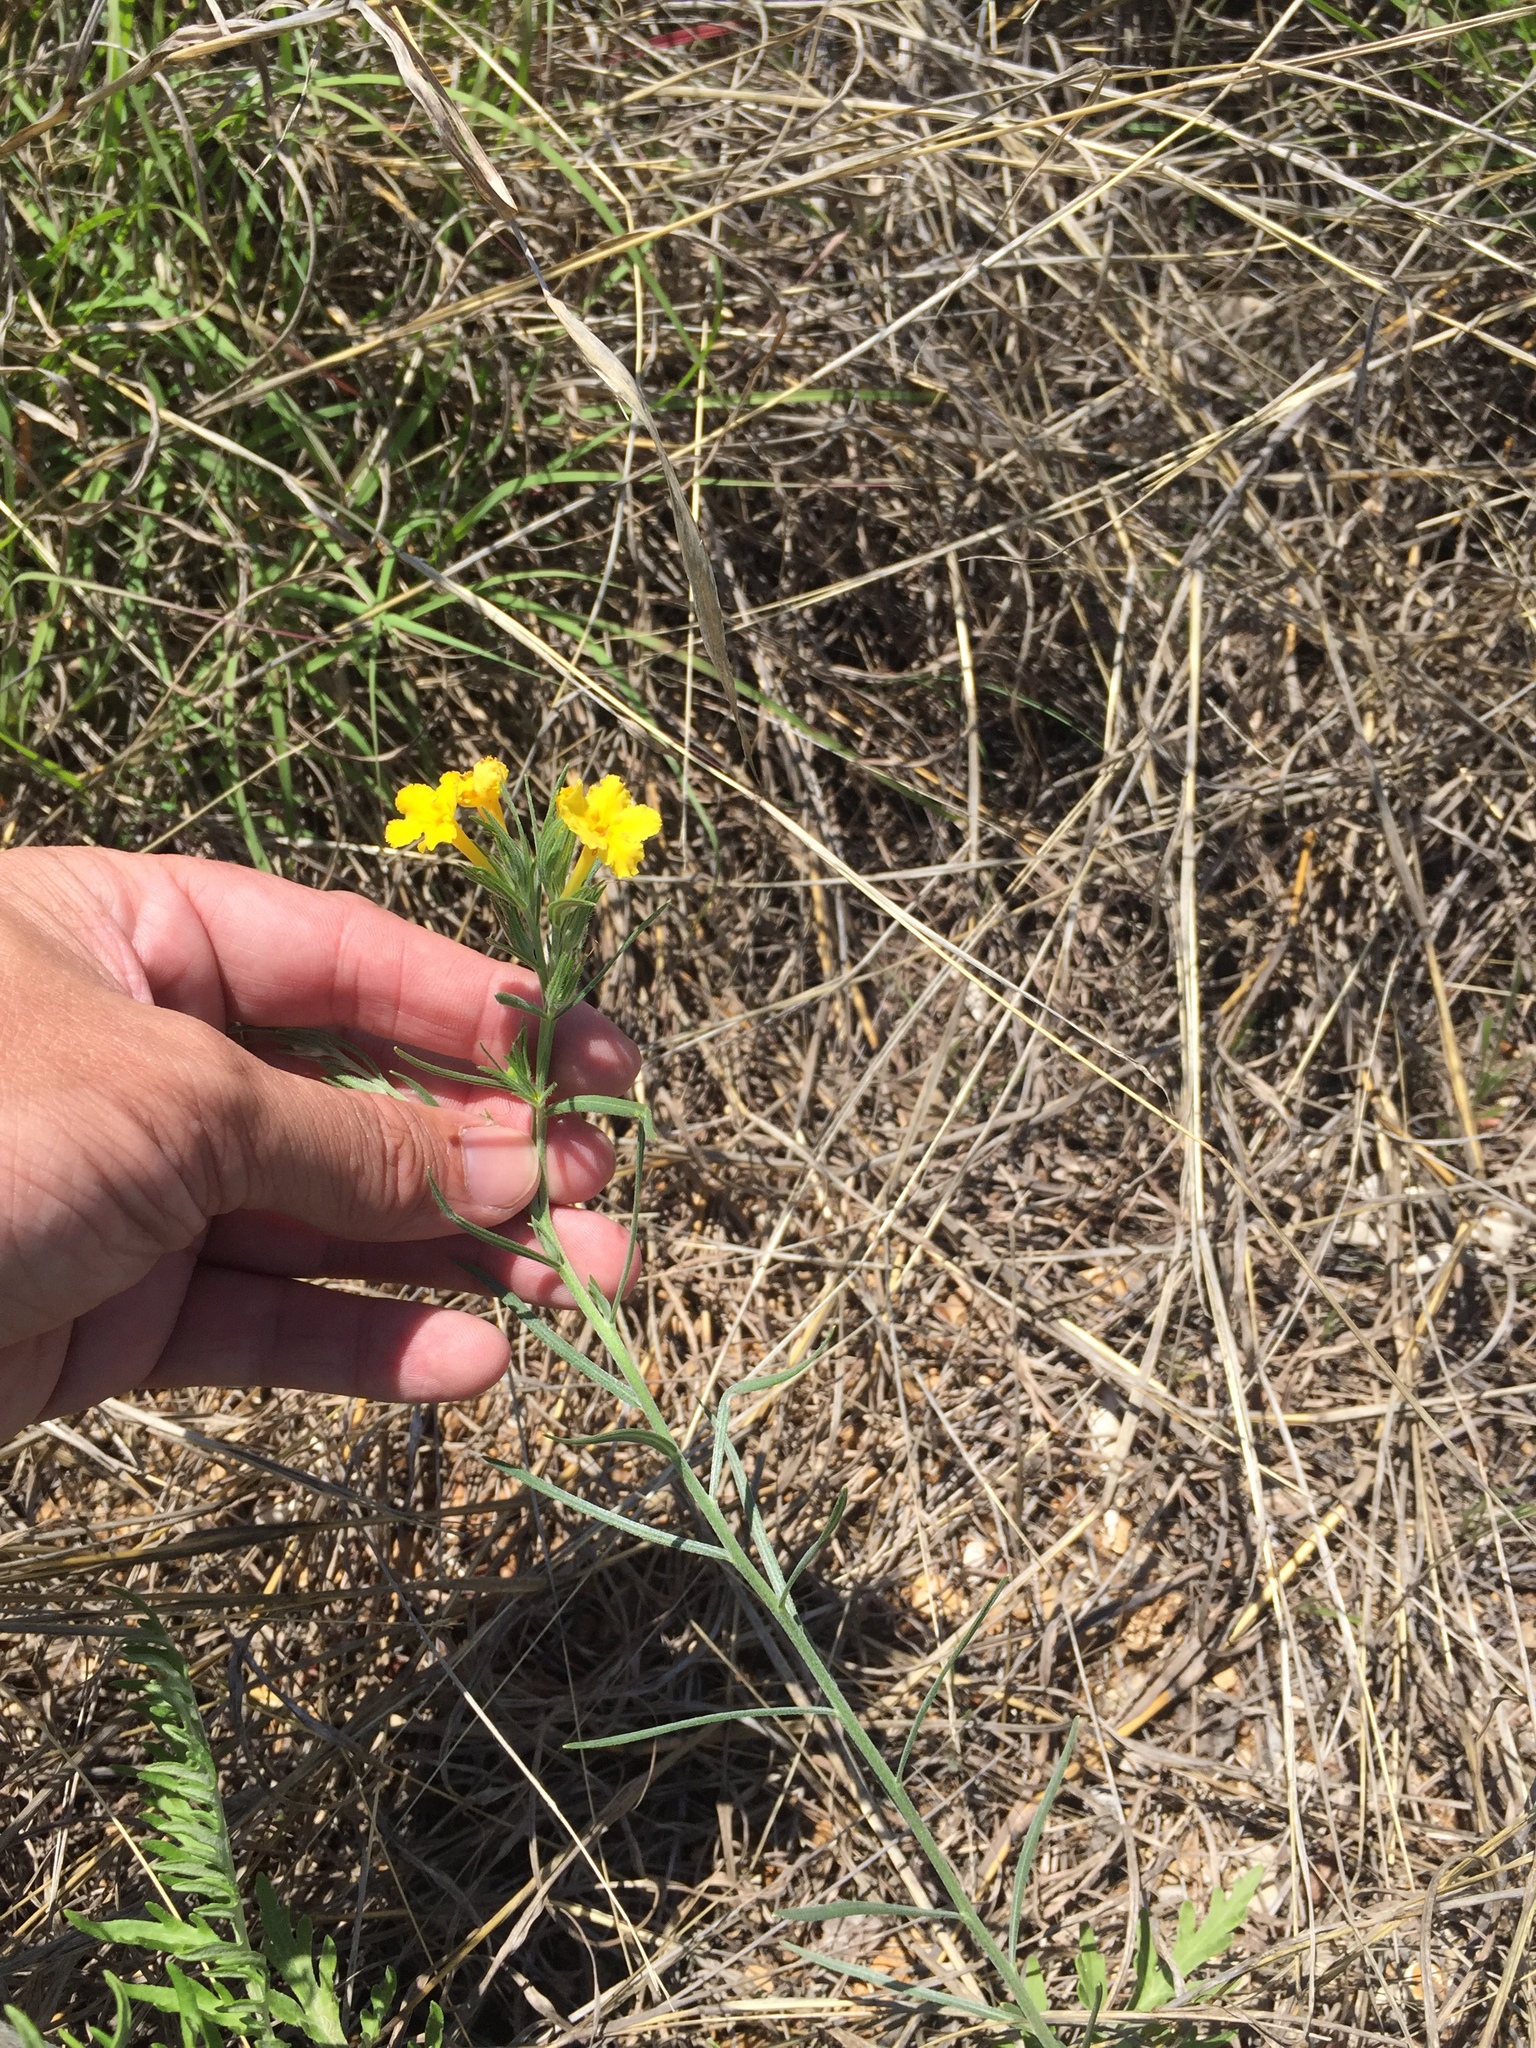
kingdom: Plantae
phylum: Tracheophyta
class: Magnoliopsida
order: Boraginales
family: Boraginaceae
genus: Lithospermum
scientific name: Lithospermum incisum
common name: Fringed gromwell
